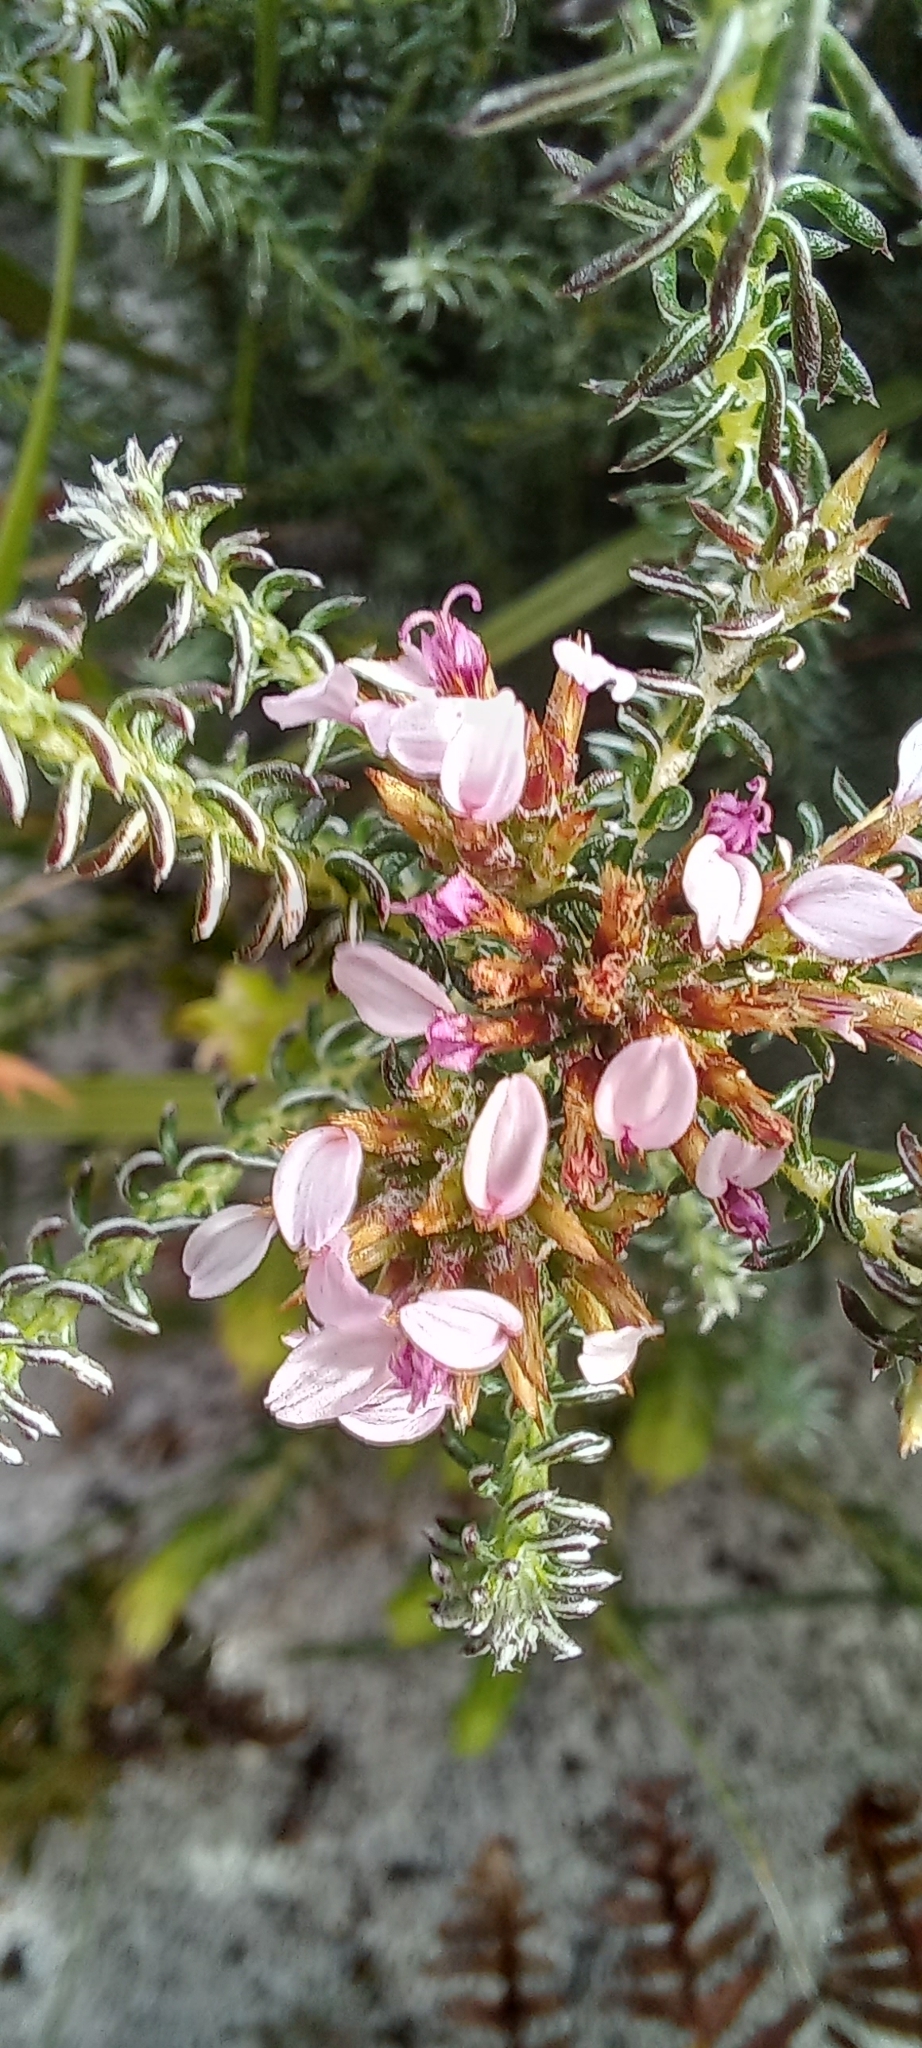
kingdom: Plantae
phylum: Tracheophyta
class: Magnoliopsida
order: Asterales
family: Asteraceae
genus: Disparago
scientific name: Disparago ericoides
